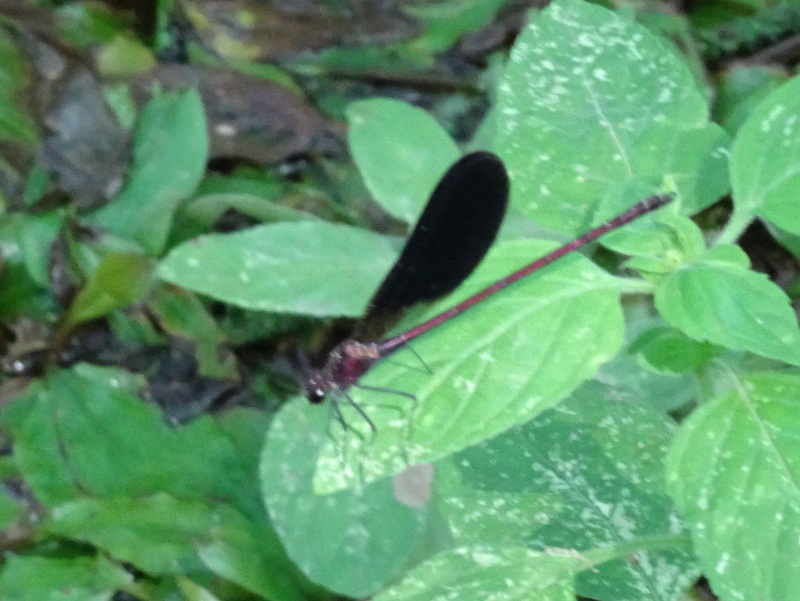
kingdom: Animalia
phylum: Arthropoda
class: Insecta
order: Odonata
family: Calopterygidae
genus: Calopteryx
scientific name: Calopteryx haemorrhoidalis
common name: Copper demoiselle
